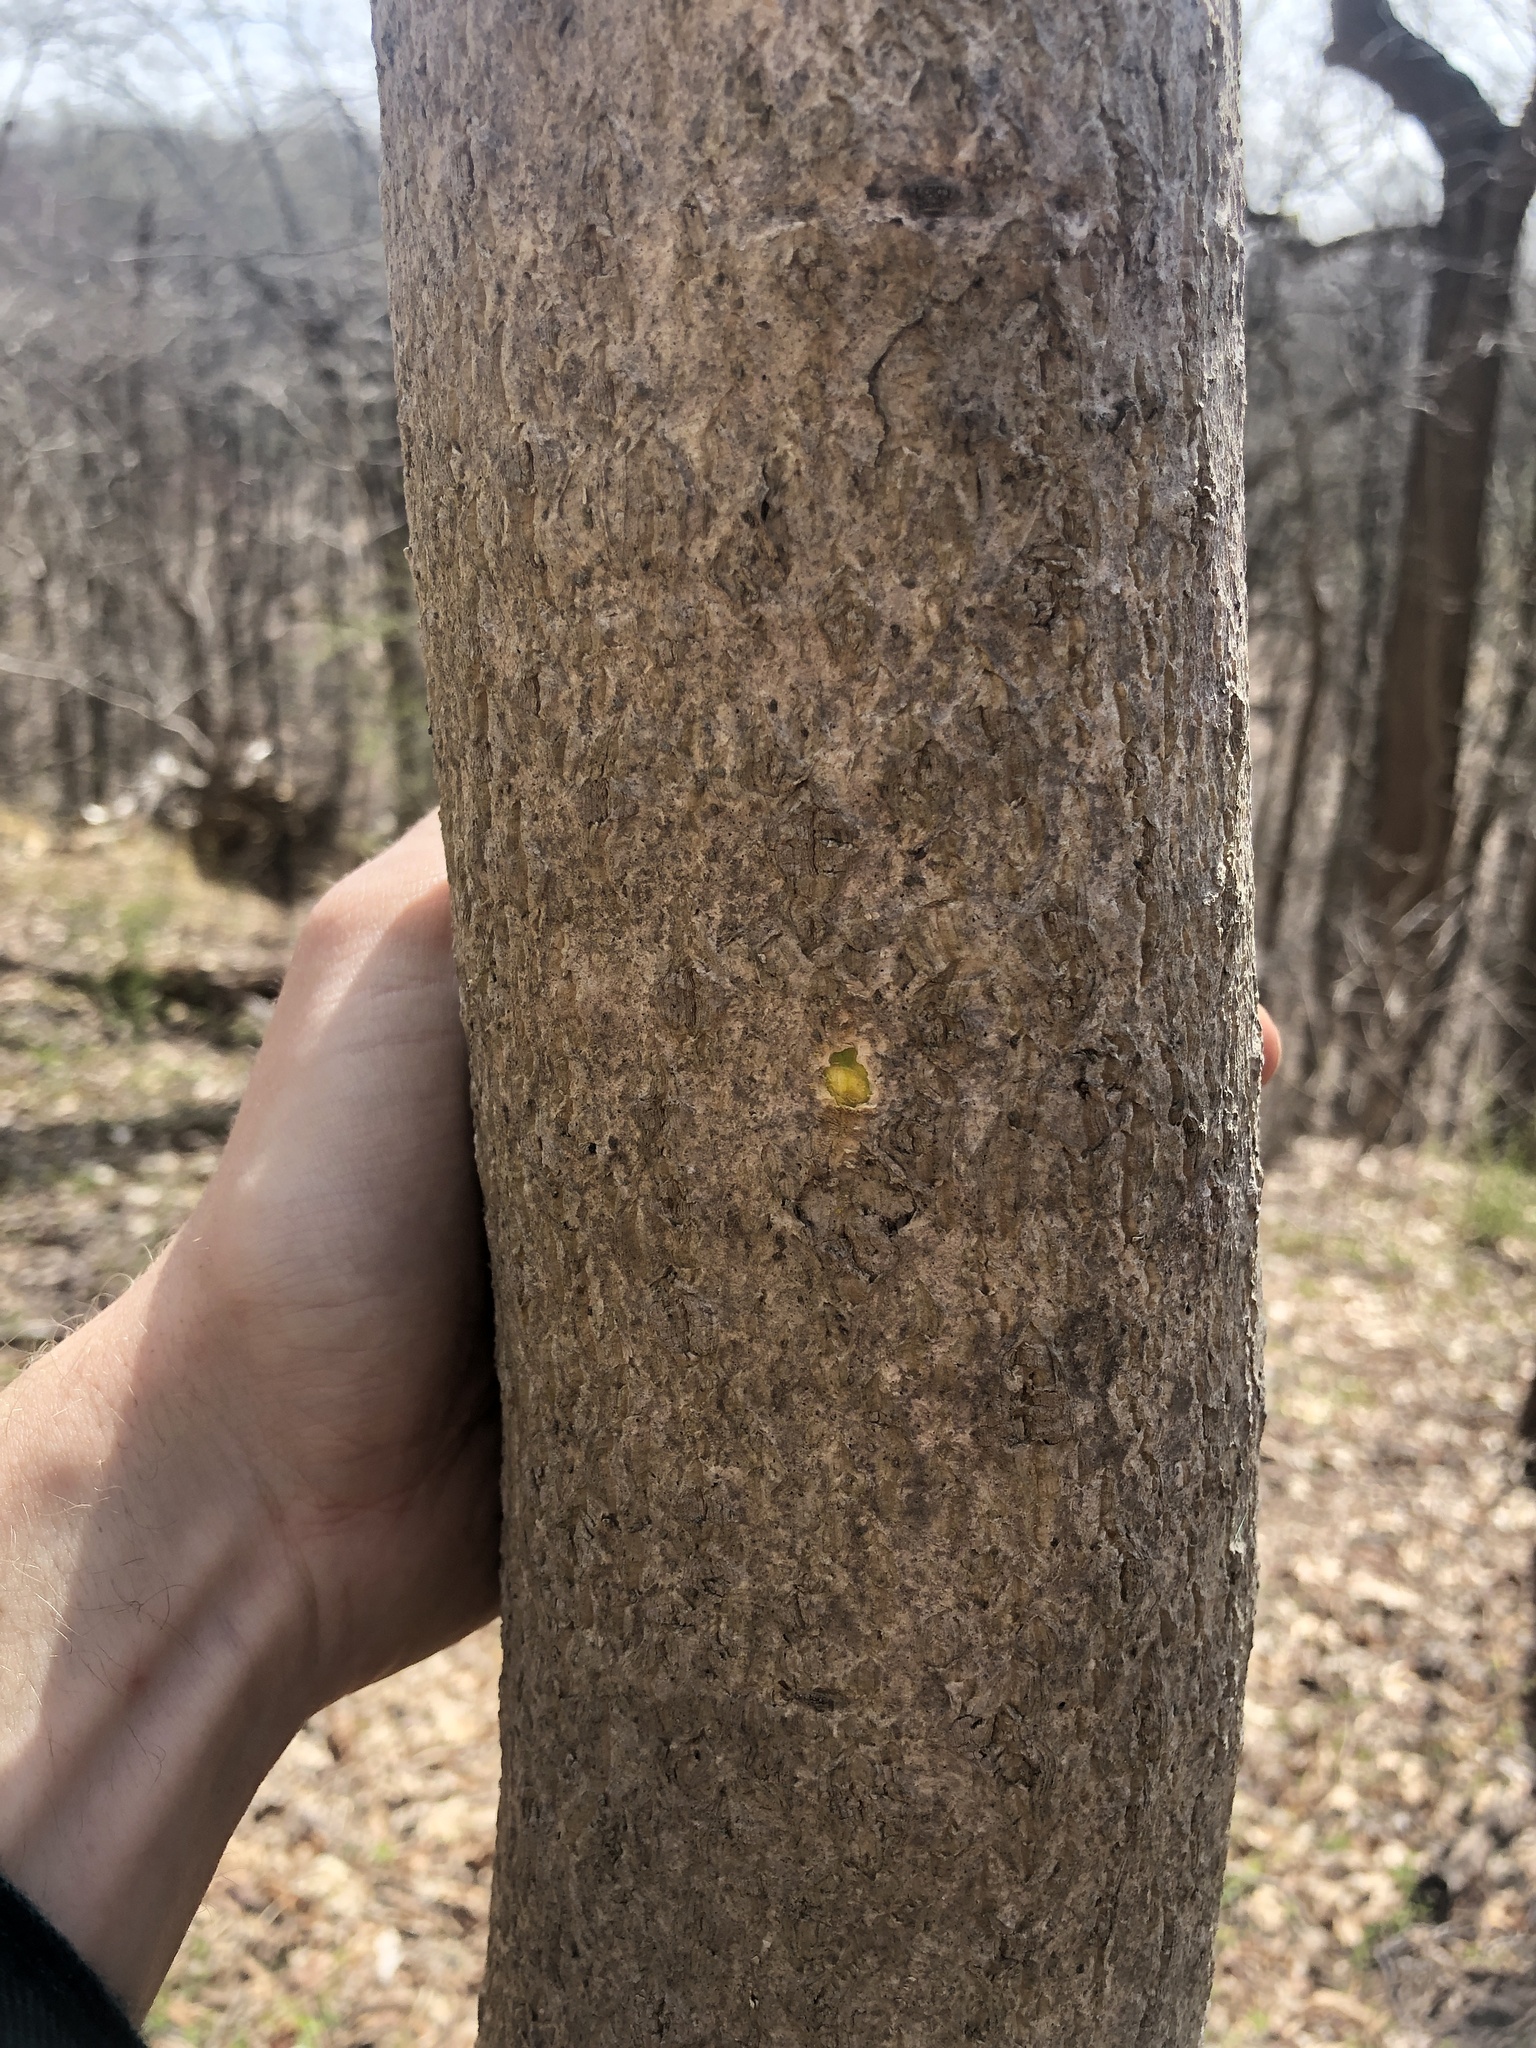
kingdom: Plantae
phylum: Tracheophyta
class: Magnoliopsida
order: Sapindales
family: Rutaceae
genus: Phellodendron
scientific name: Phellodendron amurense
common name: Amur corktree
